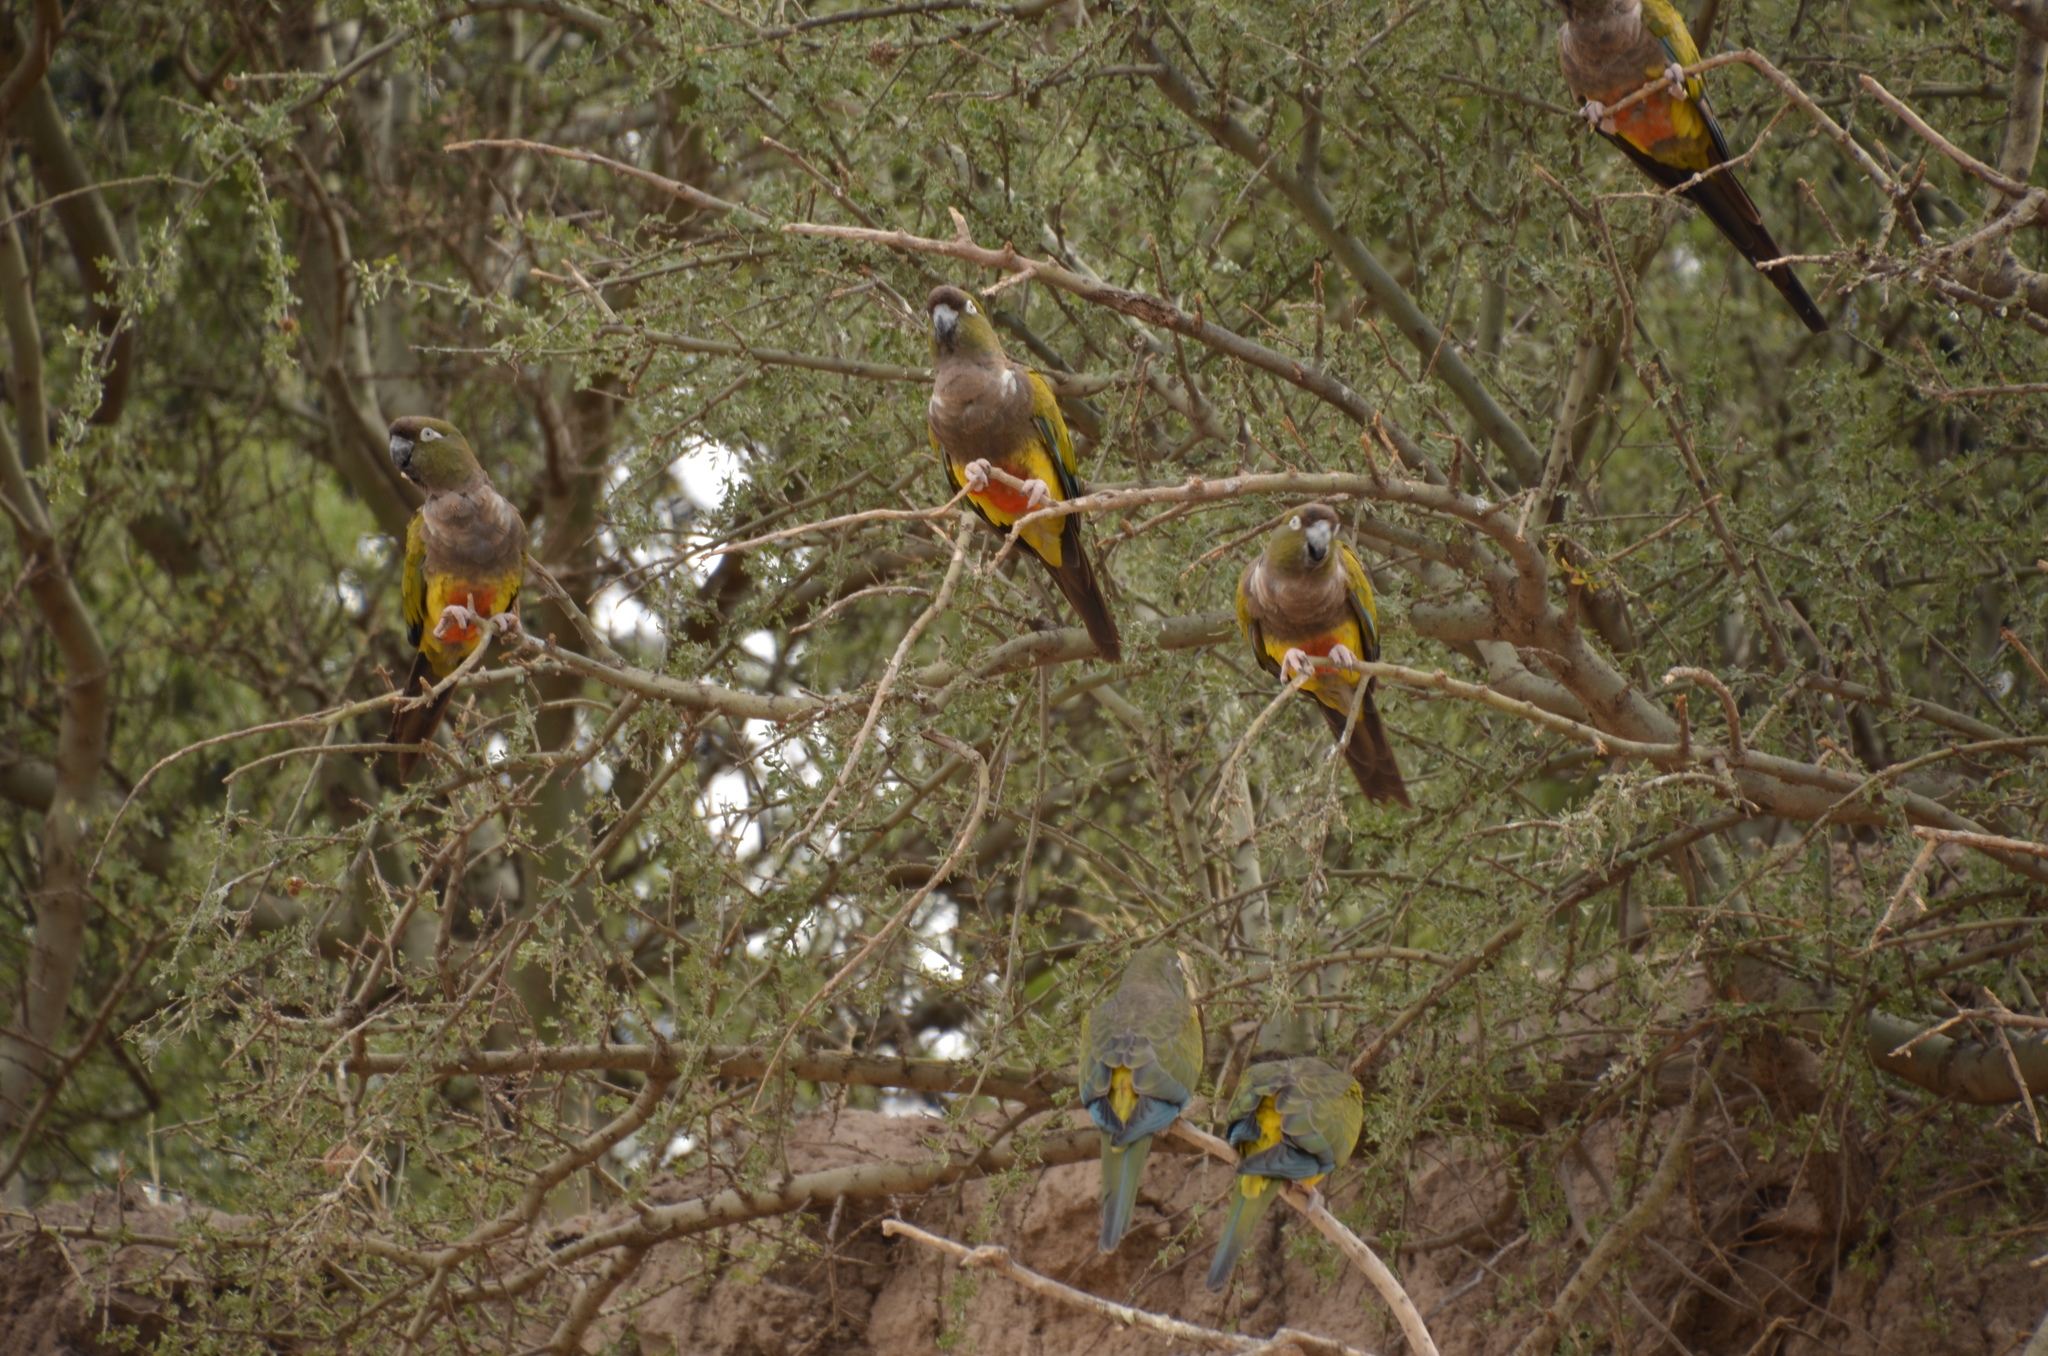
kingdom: Animalia
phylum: Chordata
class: Aves
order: Psittaciformes
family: Psittacidae
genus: Cyanoliseus
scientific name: Cyanoliseus patagonus
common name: Burrowing parrot
